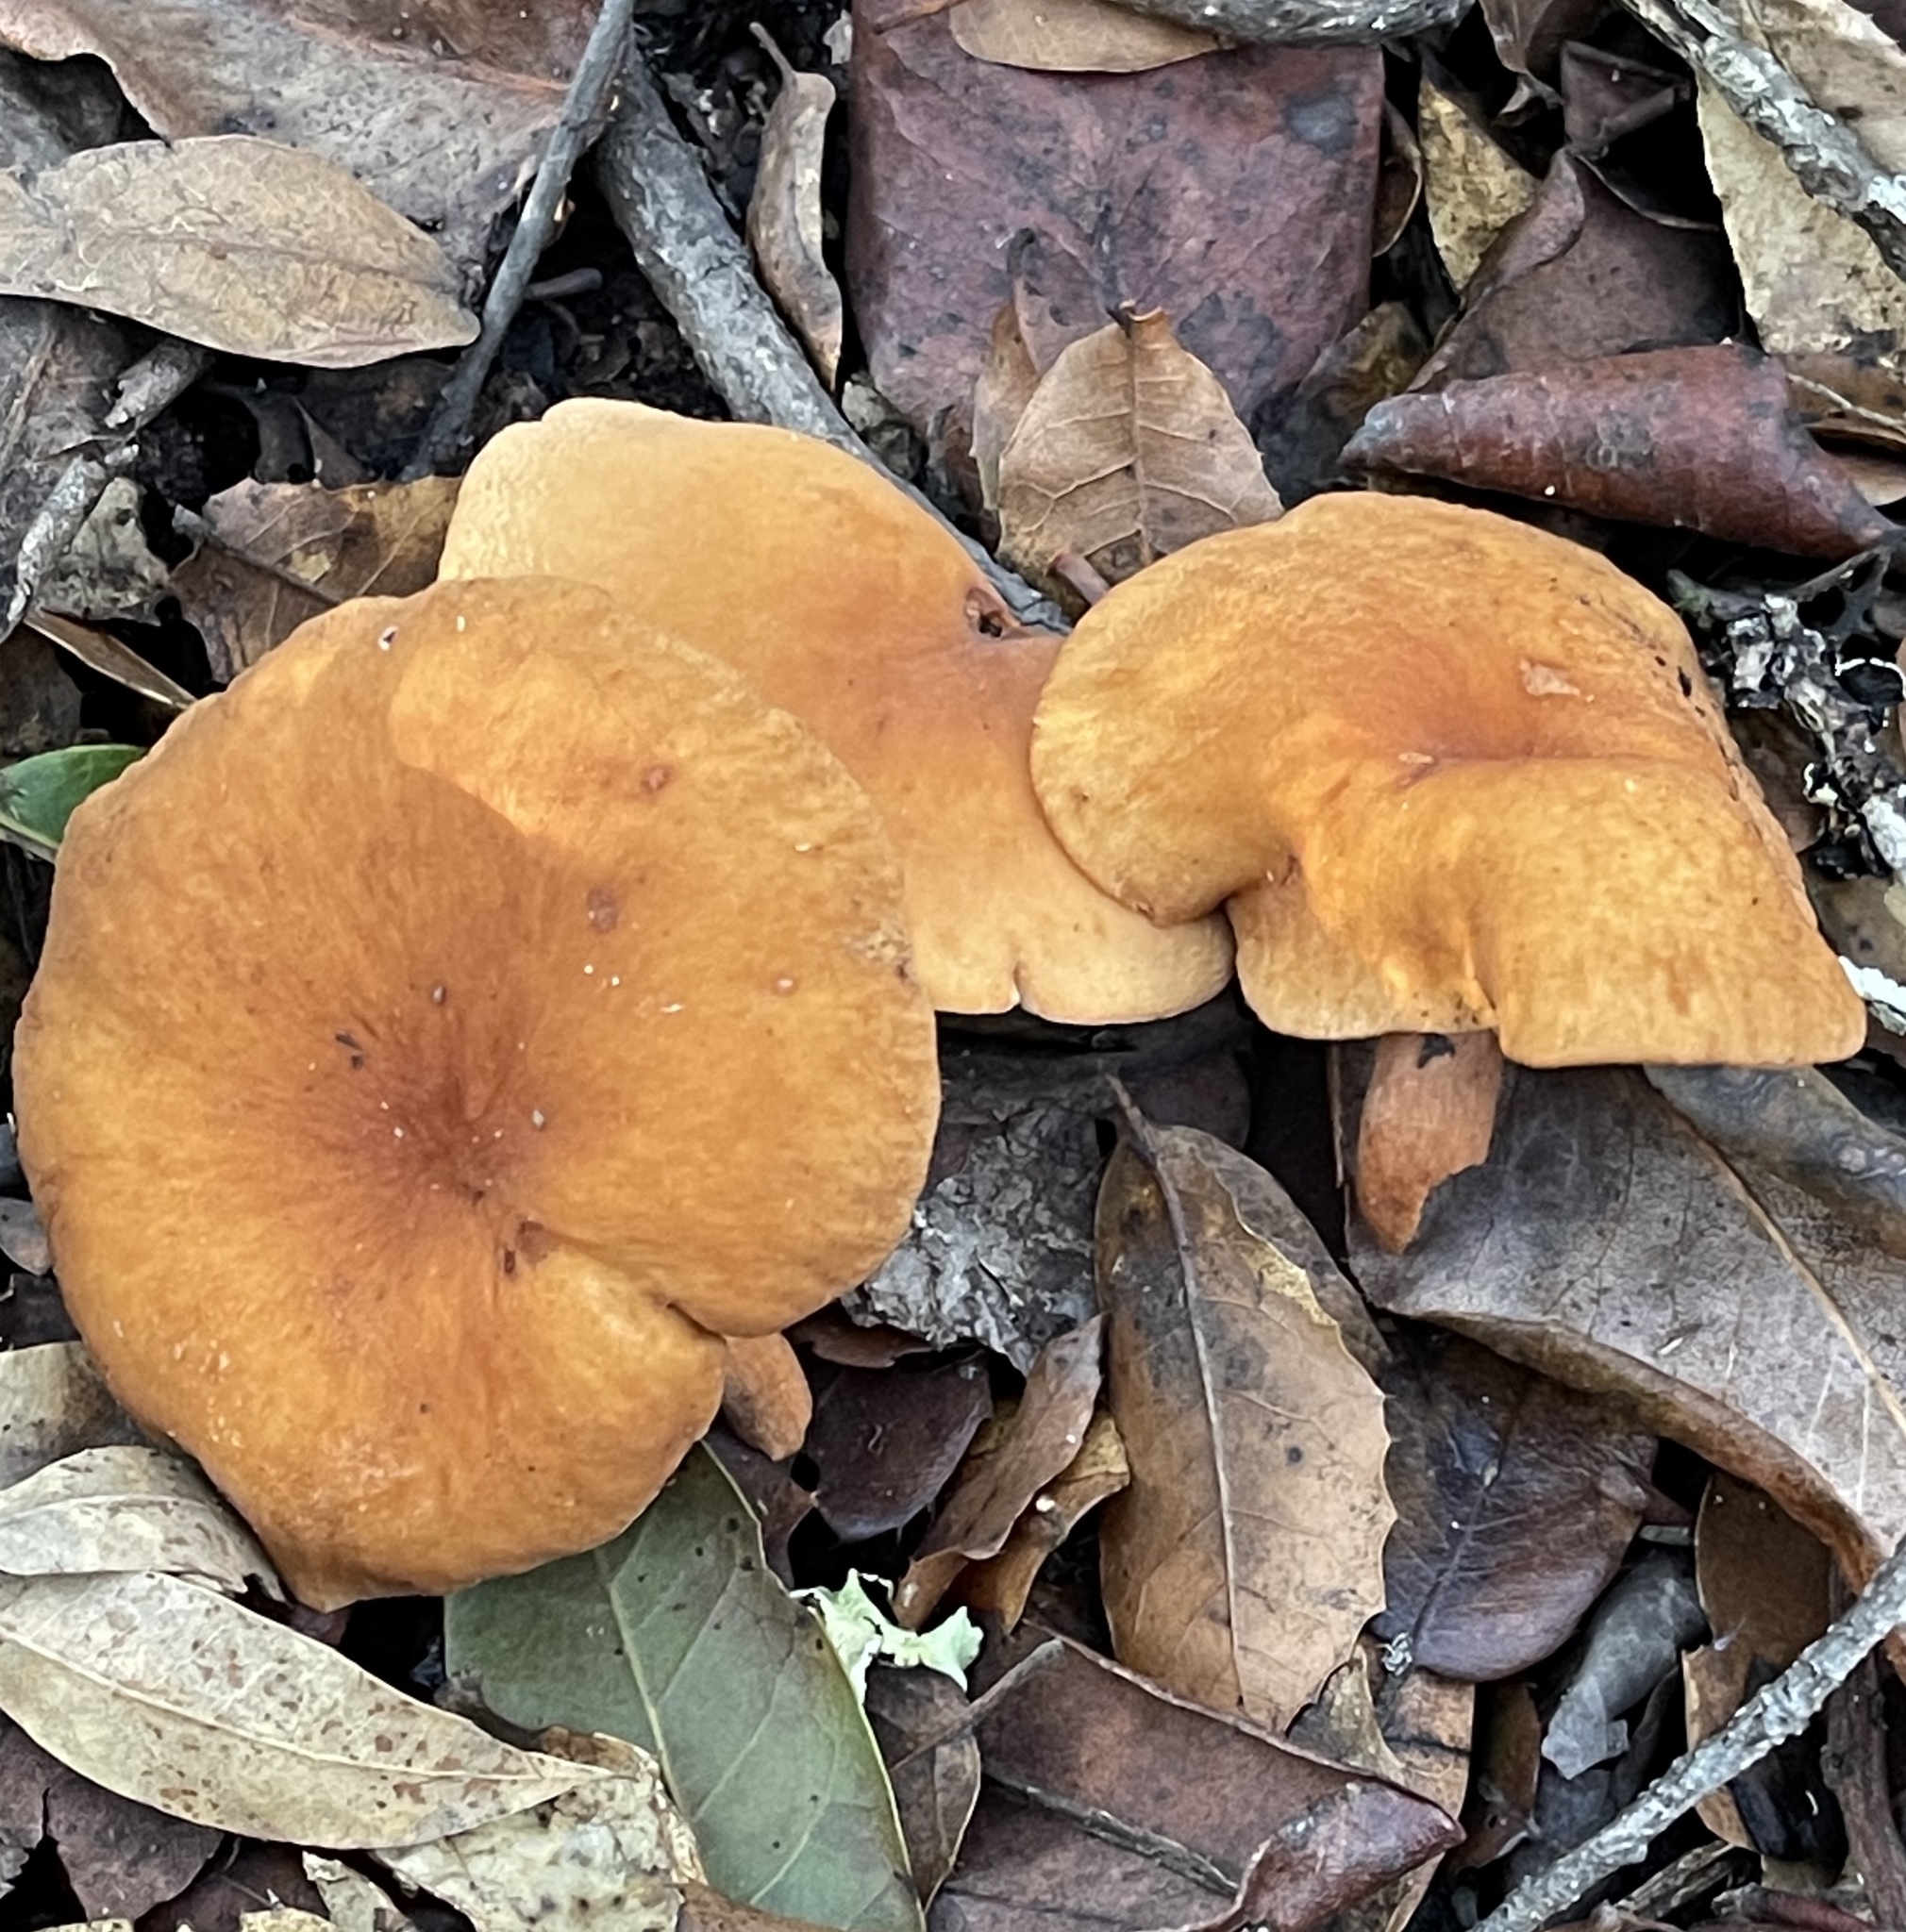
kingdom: Fungi
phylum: Basidiomycota
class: Agaricomycetes
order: Russulales
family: Russulaceae
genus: Lactarius
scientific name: Lactarius rubidus
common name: Candy cap
